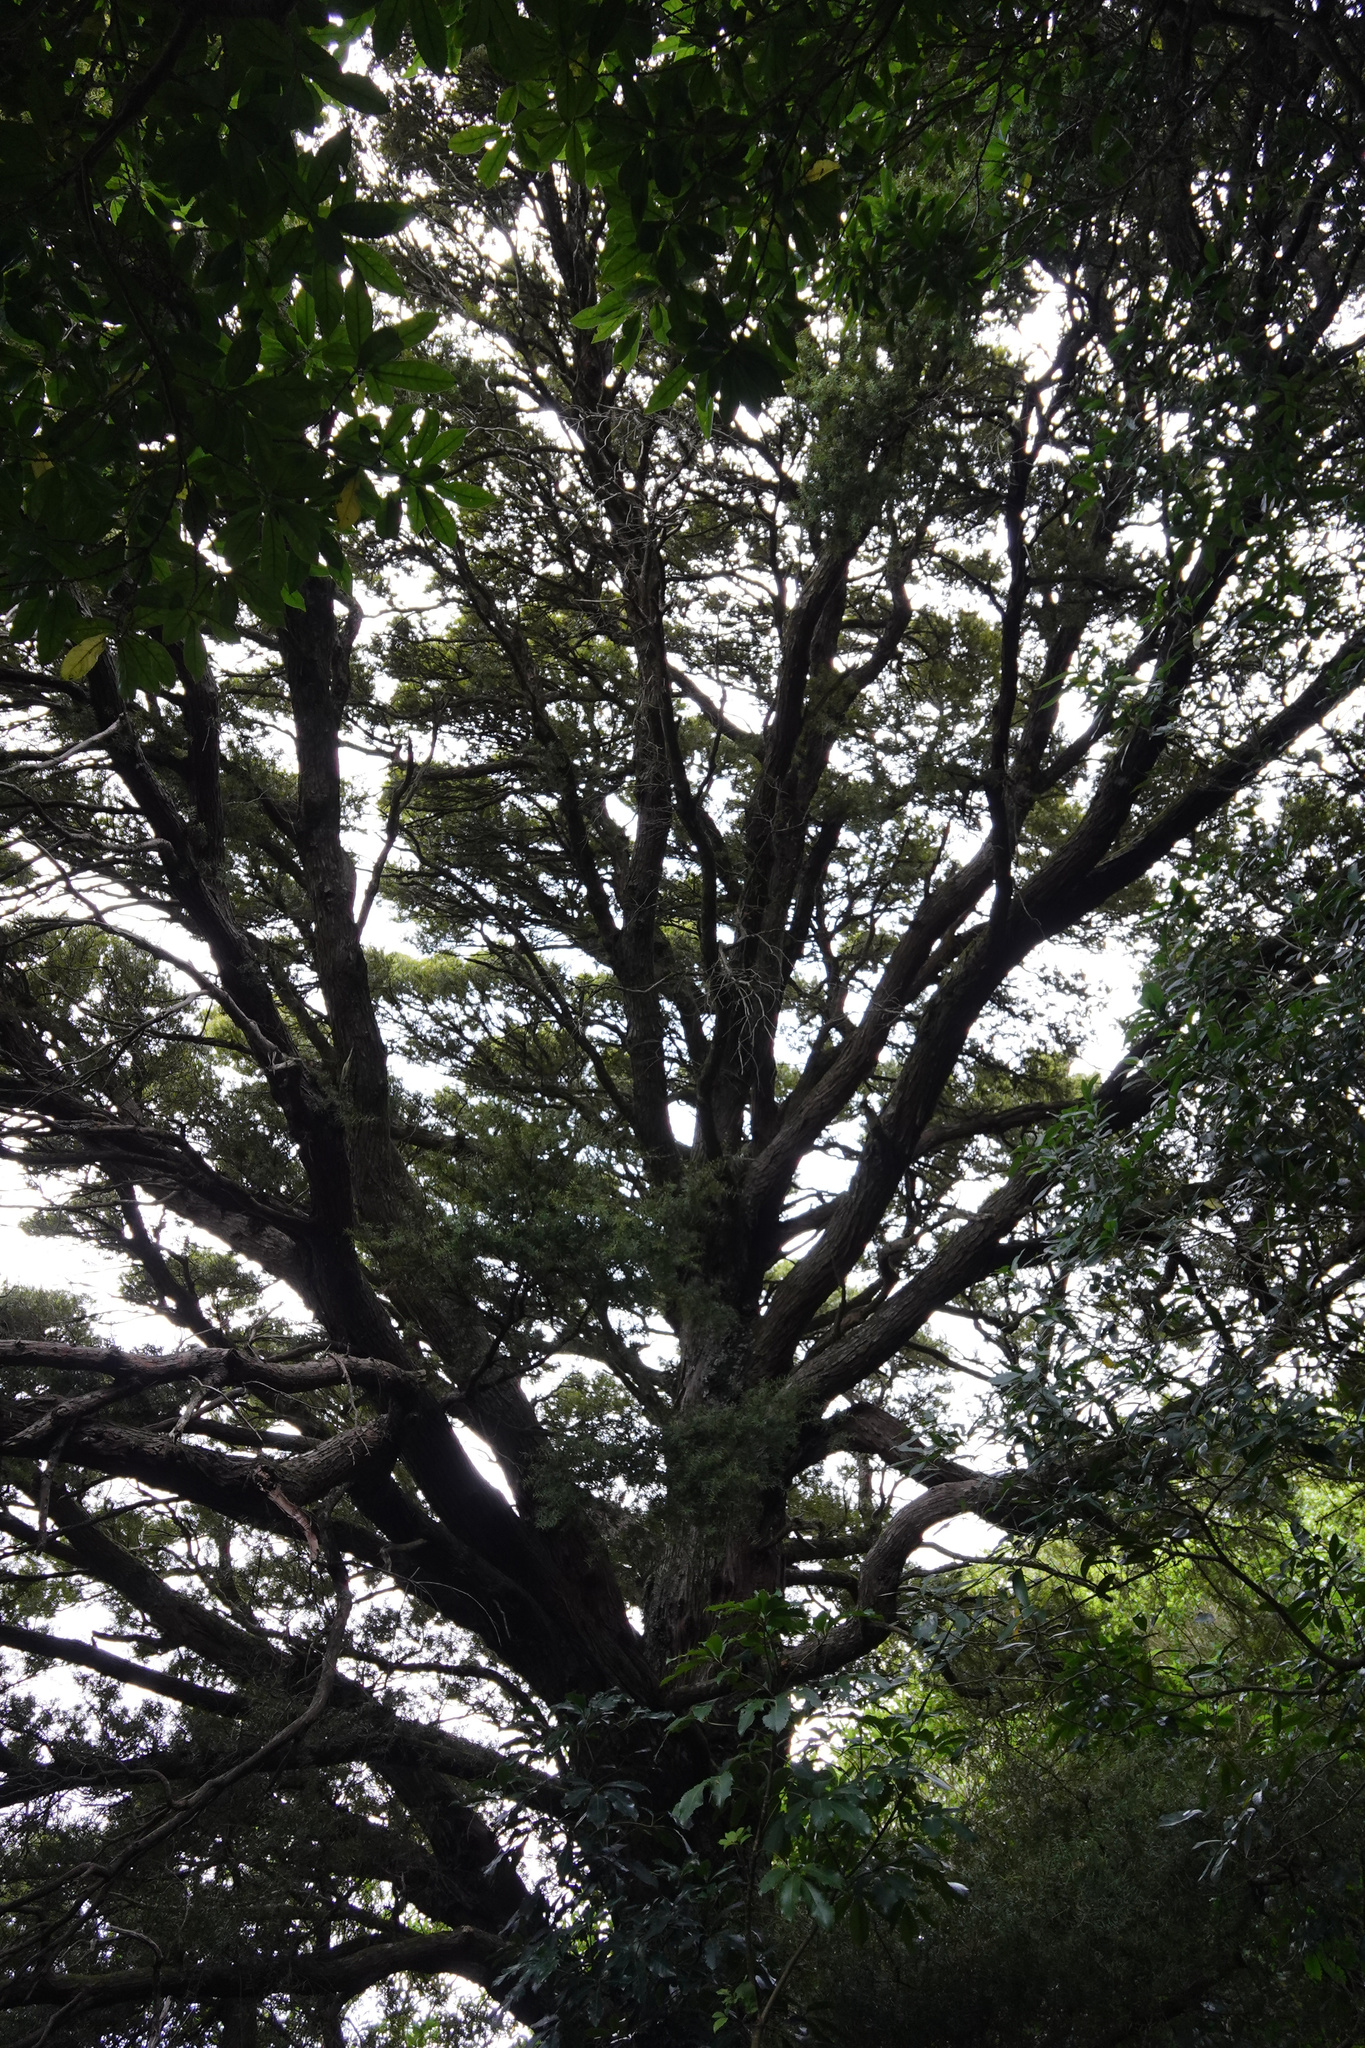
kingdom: Plantae
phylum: Tracheophyta
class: Pinopsida
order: Pinales
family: Podocarpaceae
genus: Podocarpus
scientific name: Podocarpus totara
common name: Totara
